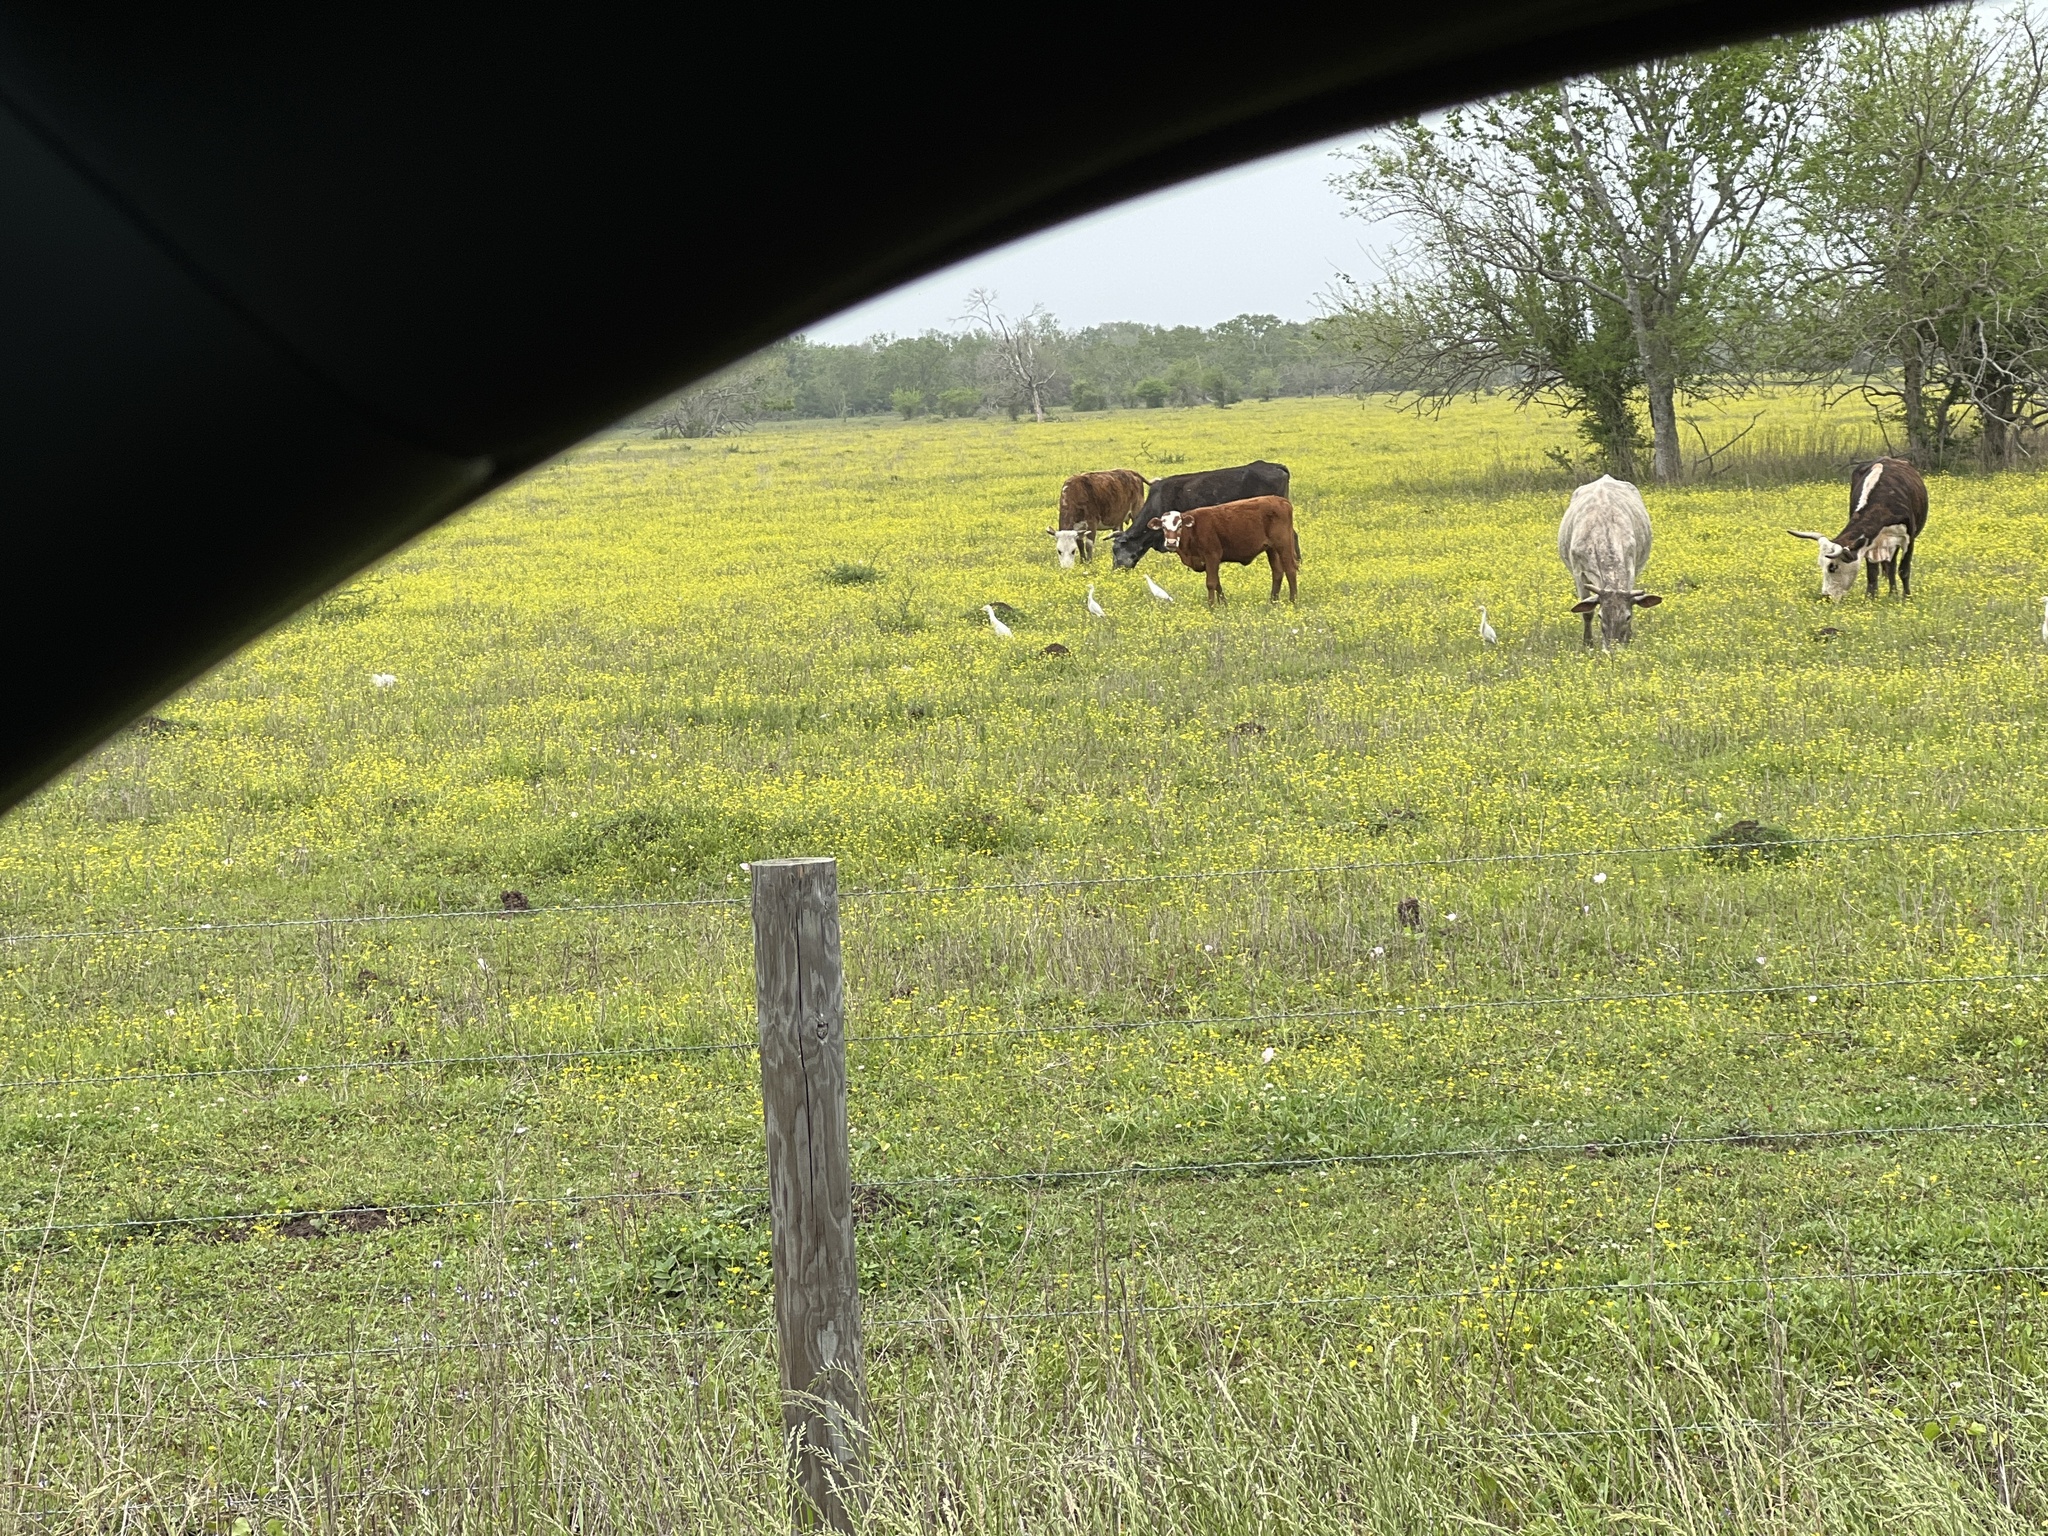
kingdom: Animalia
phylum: Chordata
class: Aves
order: Pelecaniformes
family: Ardeidae
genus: Bubulcus
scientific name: Bubulcus ibis
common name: Cattle egret
